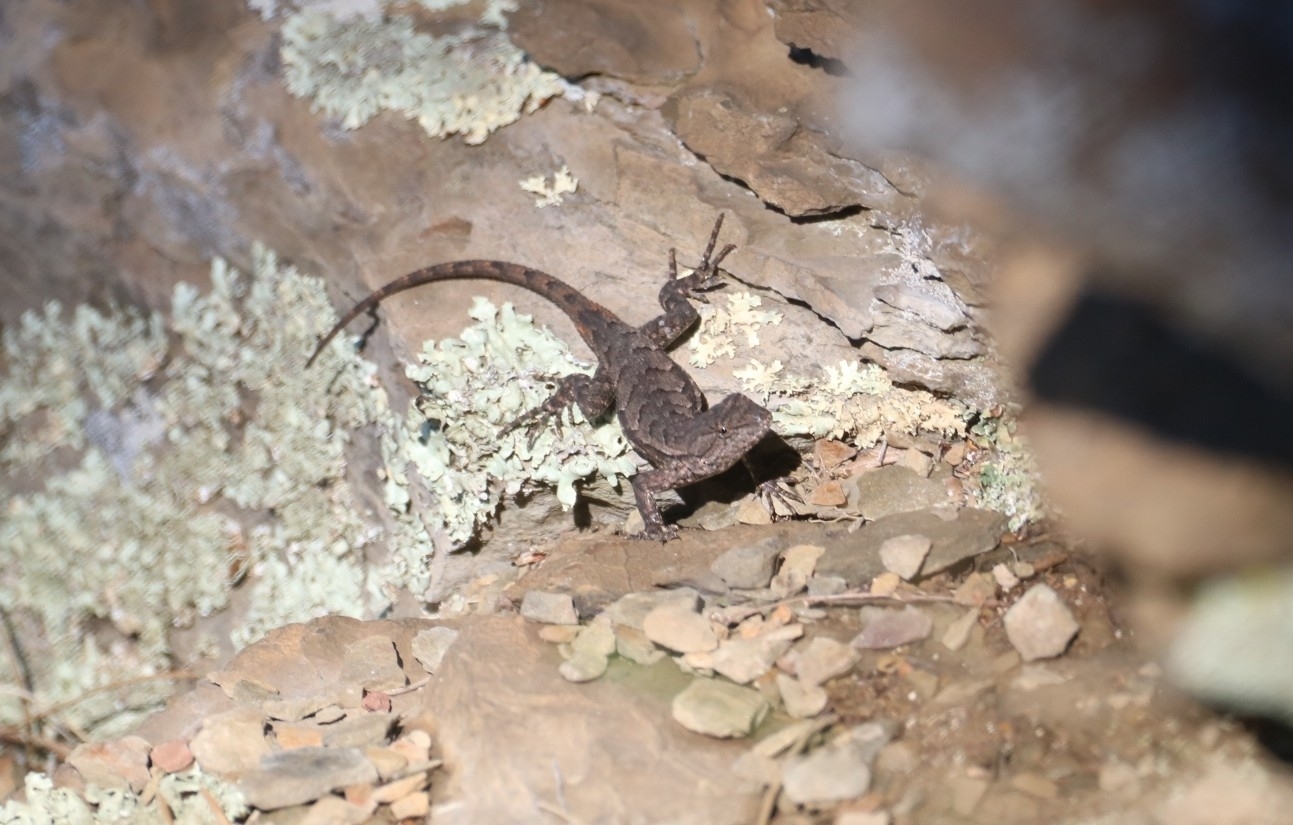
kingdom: Animalia
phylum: Chordata
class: Squamata
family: Phrynosomatidae
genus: Sceloporus
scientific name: Sceloporus consobrinus
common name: Southern prairie lizard
